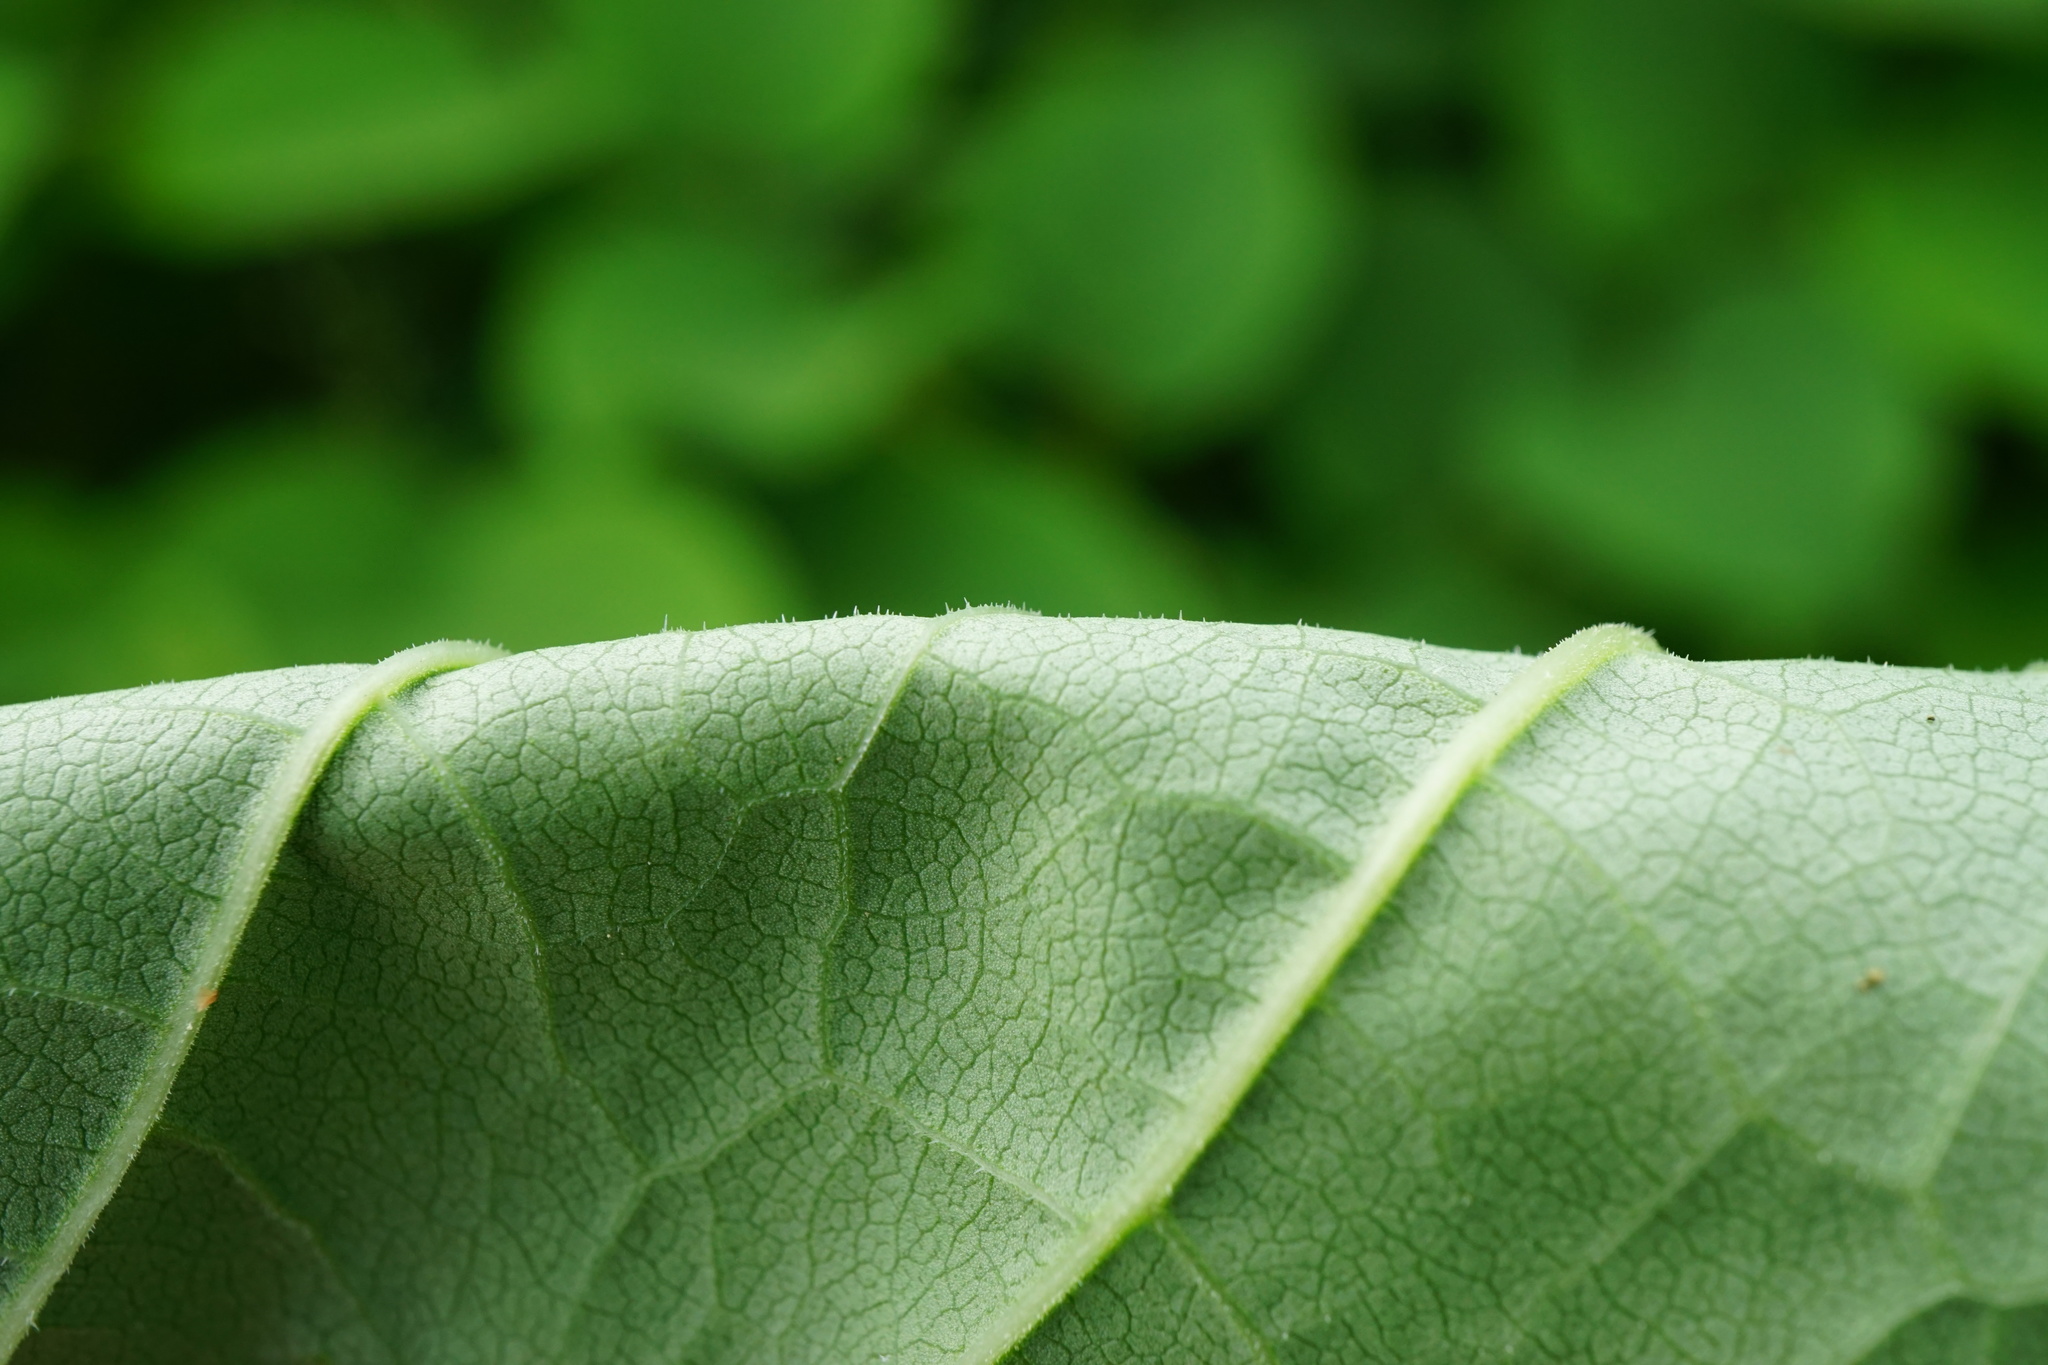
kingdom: Plantae
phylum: Tracheophyta
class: Magnoliopsida
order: Caryophyllales
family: Polygonaceae
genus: Reynoutria
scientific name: Reynoutria bohemica
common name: Bohemian knotweed
